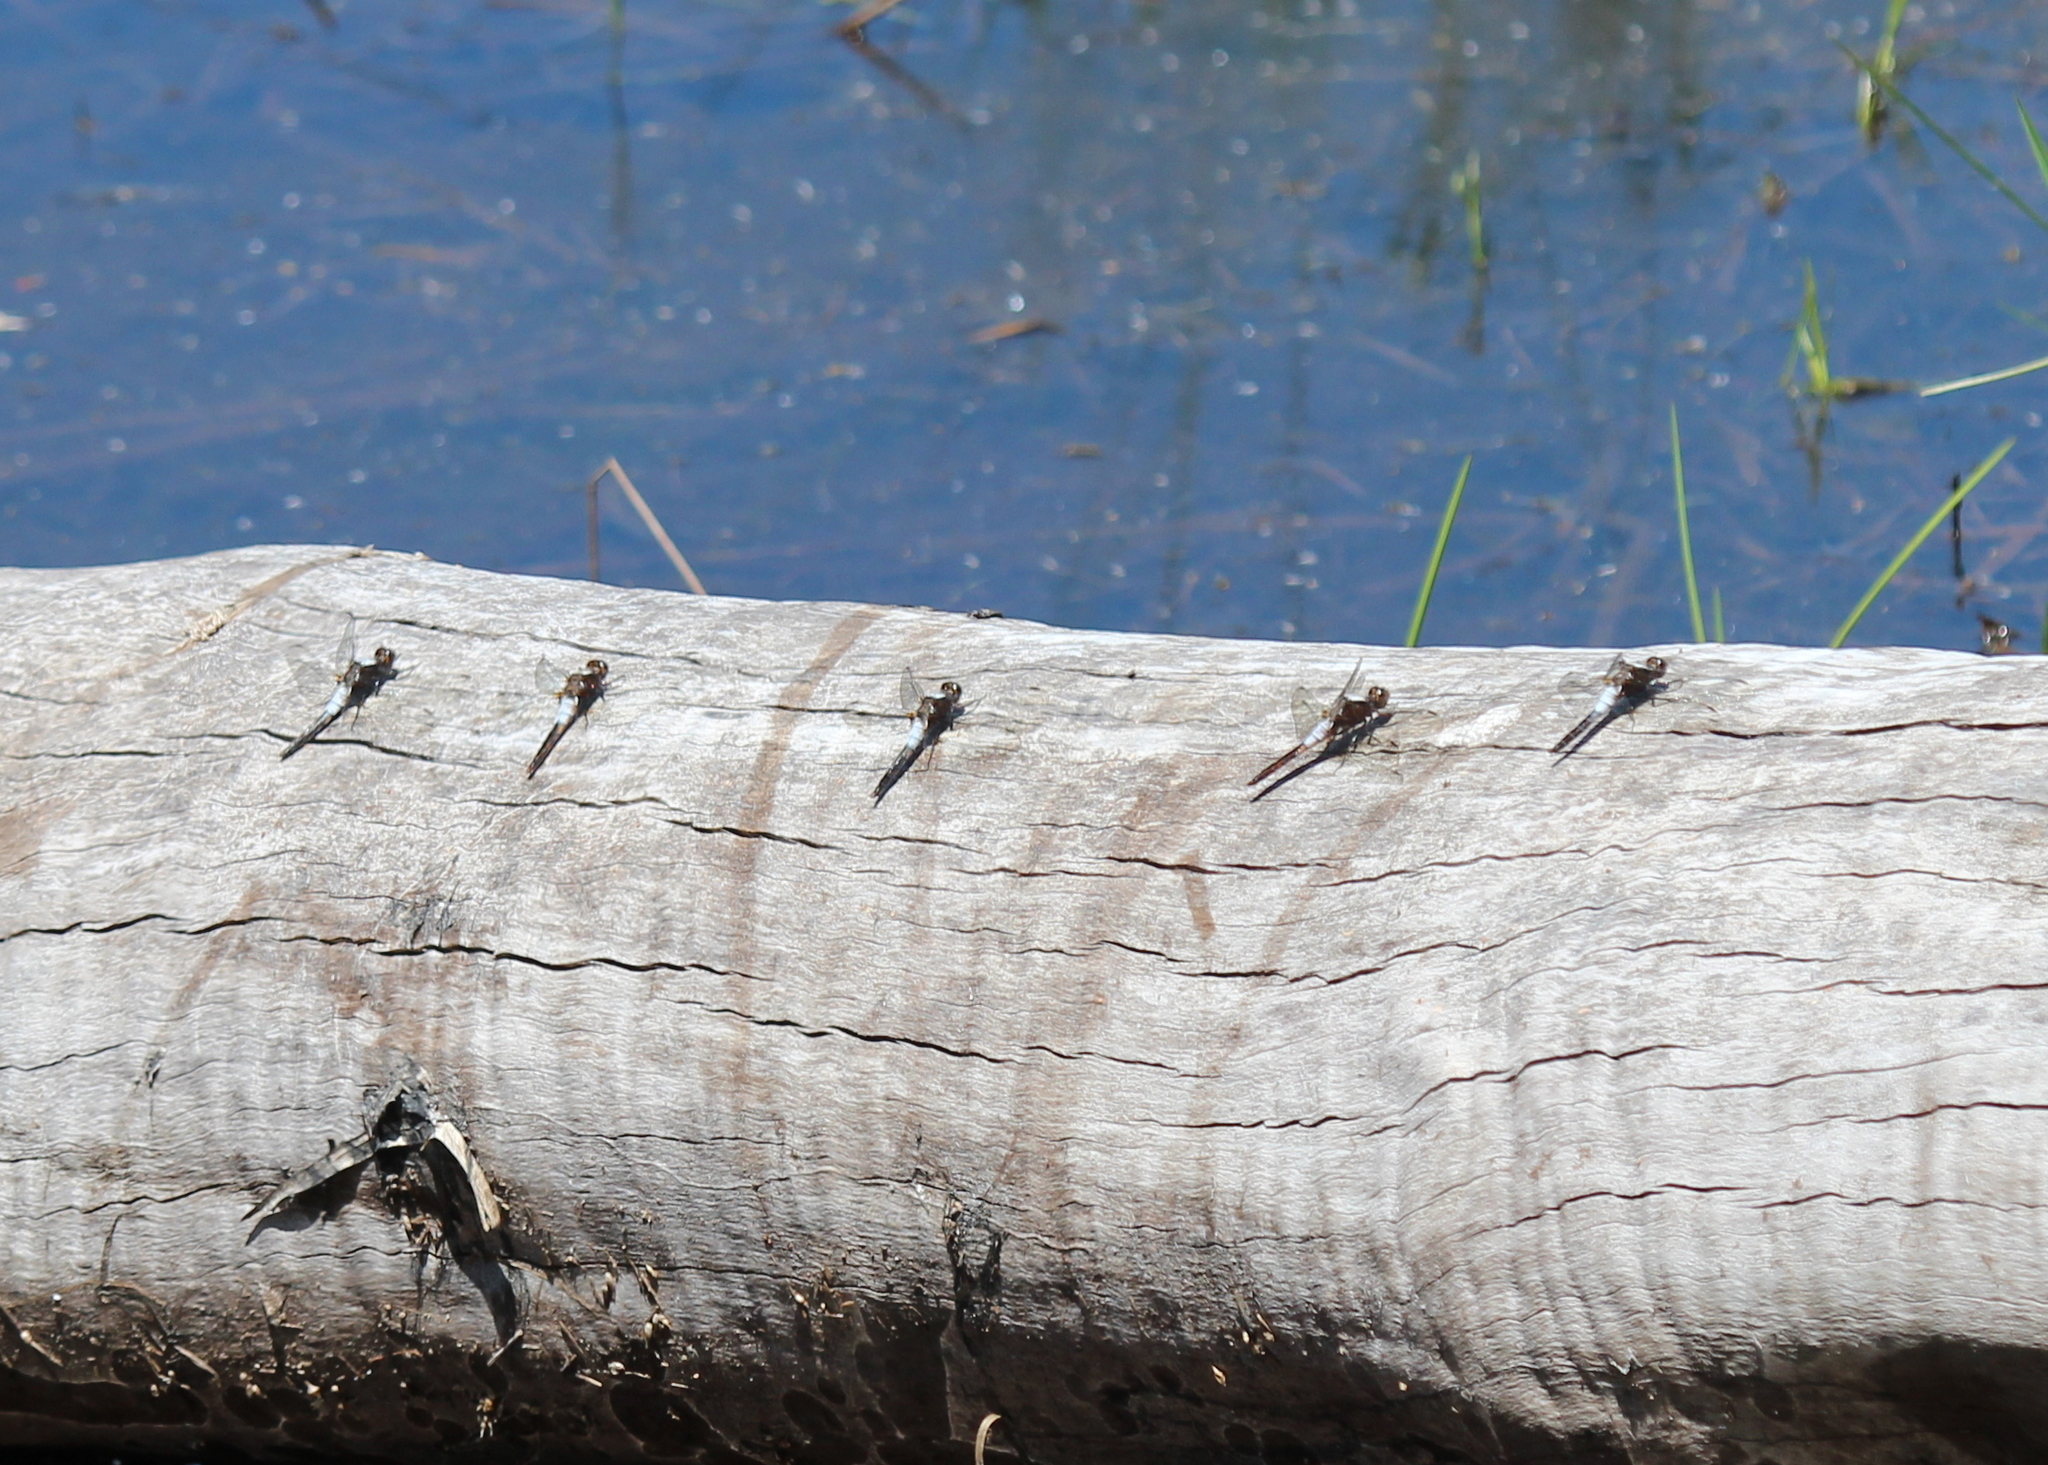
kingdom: Animalia
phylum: Arthropoda
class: Insecta
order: Odonata
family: Libellulidae
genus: Ladona
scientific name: Ladona julia
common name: Chalk-fronted corporal
